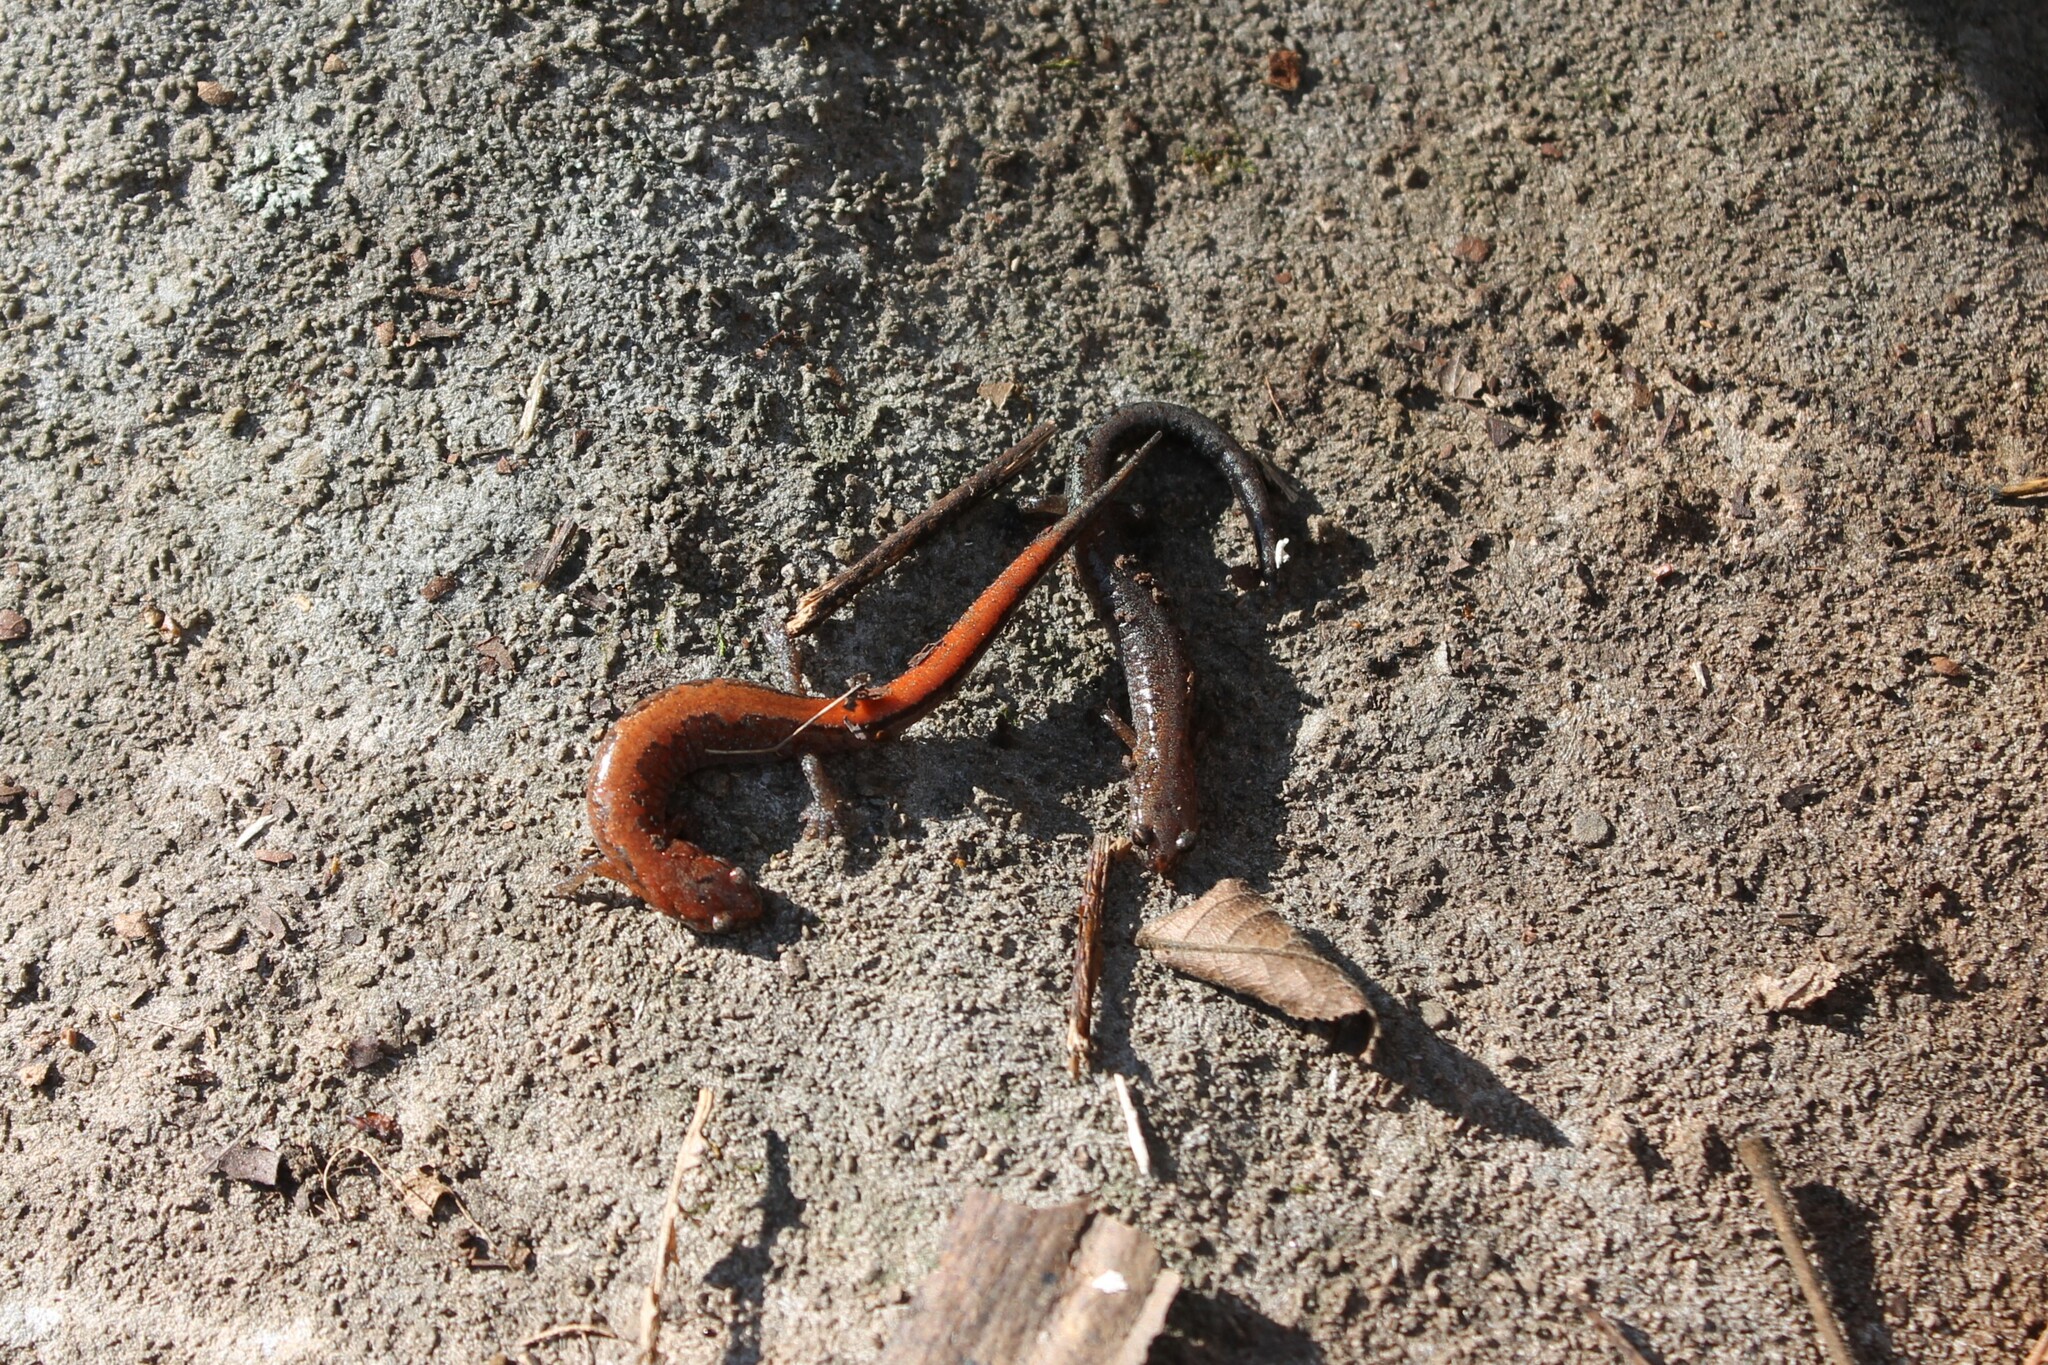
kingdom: Animalia
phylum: Chordata
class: Amphibia
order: Caudata
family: Plethodontidae
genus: Plethodon
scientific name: Plethodon dorsalis
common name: Northern zigzag salamander
